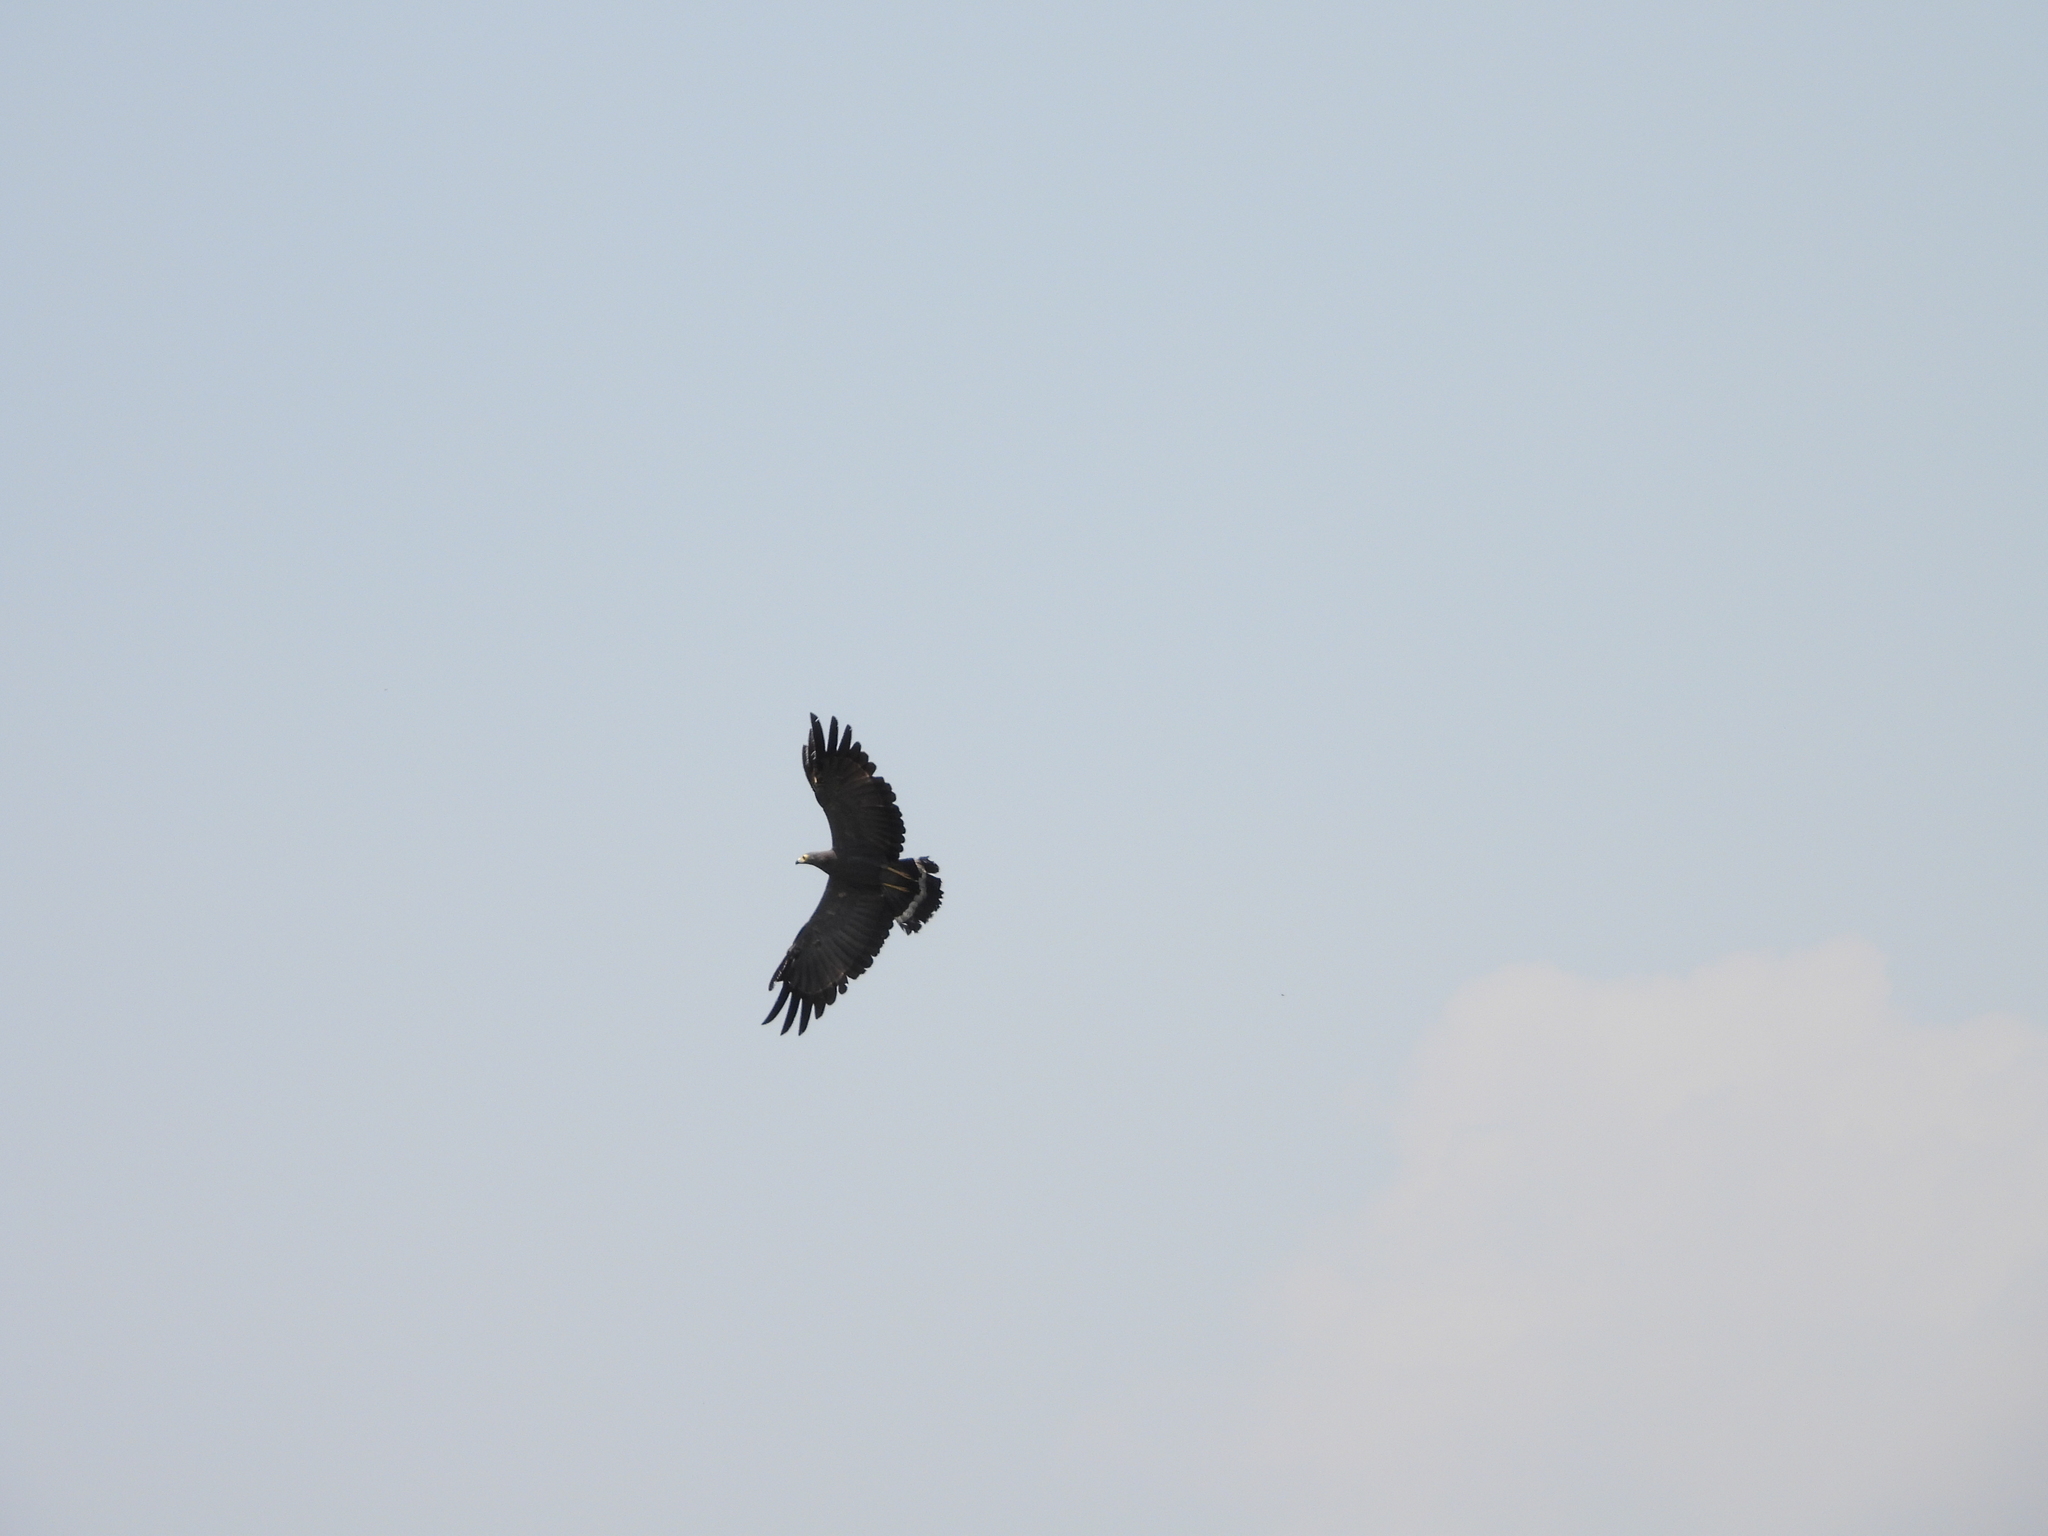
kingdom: Animalia
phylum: Chordata
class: Aves
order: Accipitriformes
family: Accipitridae
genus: Polyboroides
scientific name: Polyboroides typus
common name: African harrier-hawk
